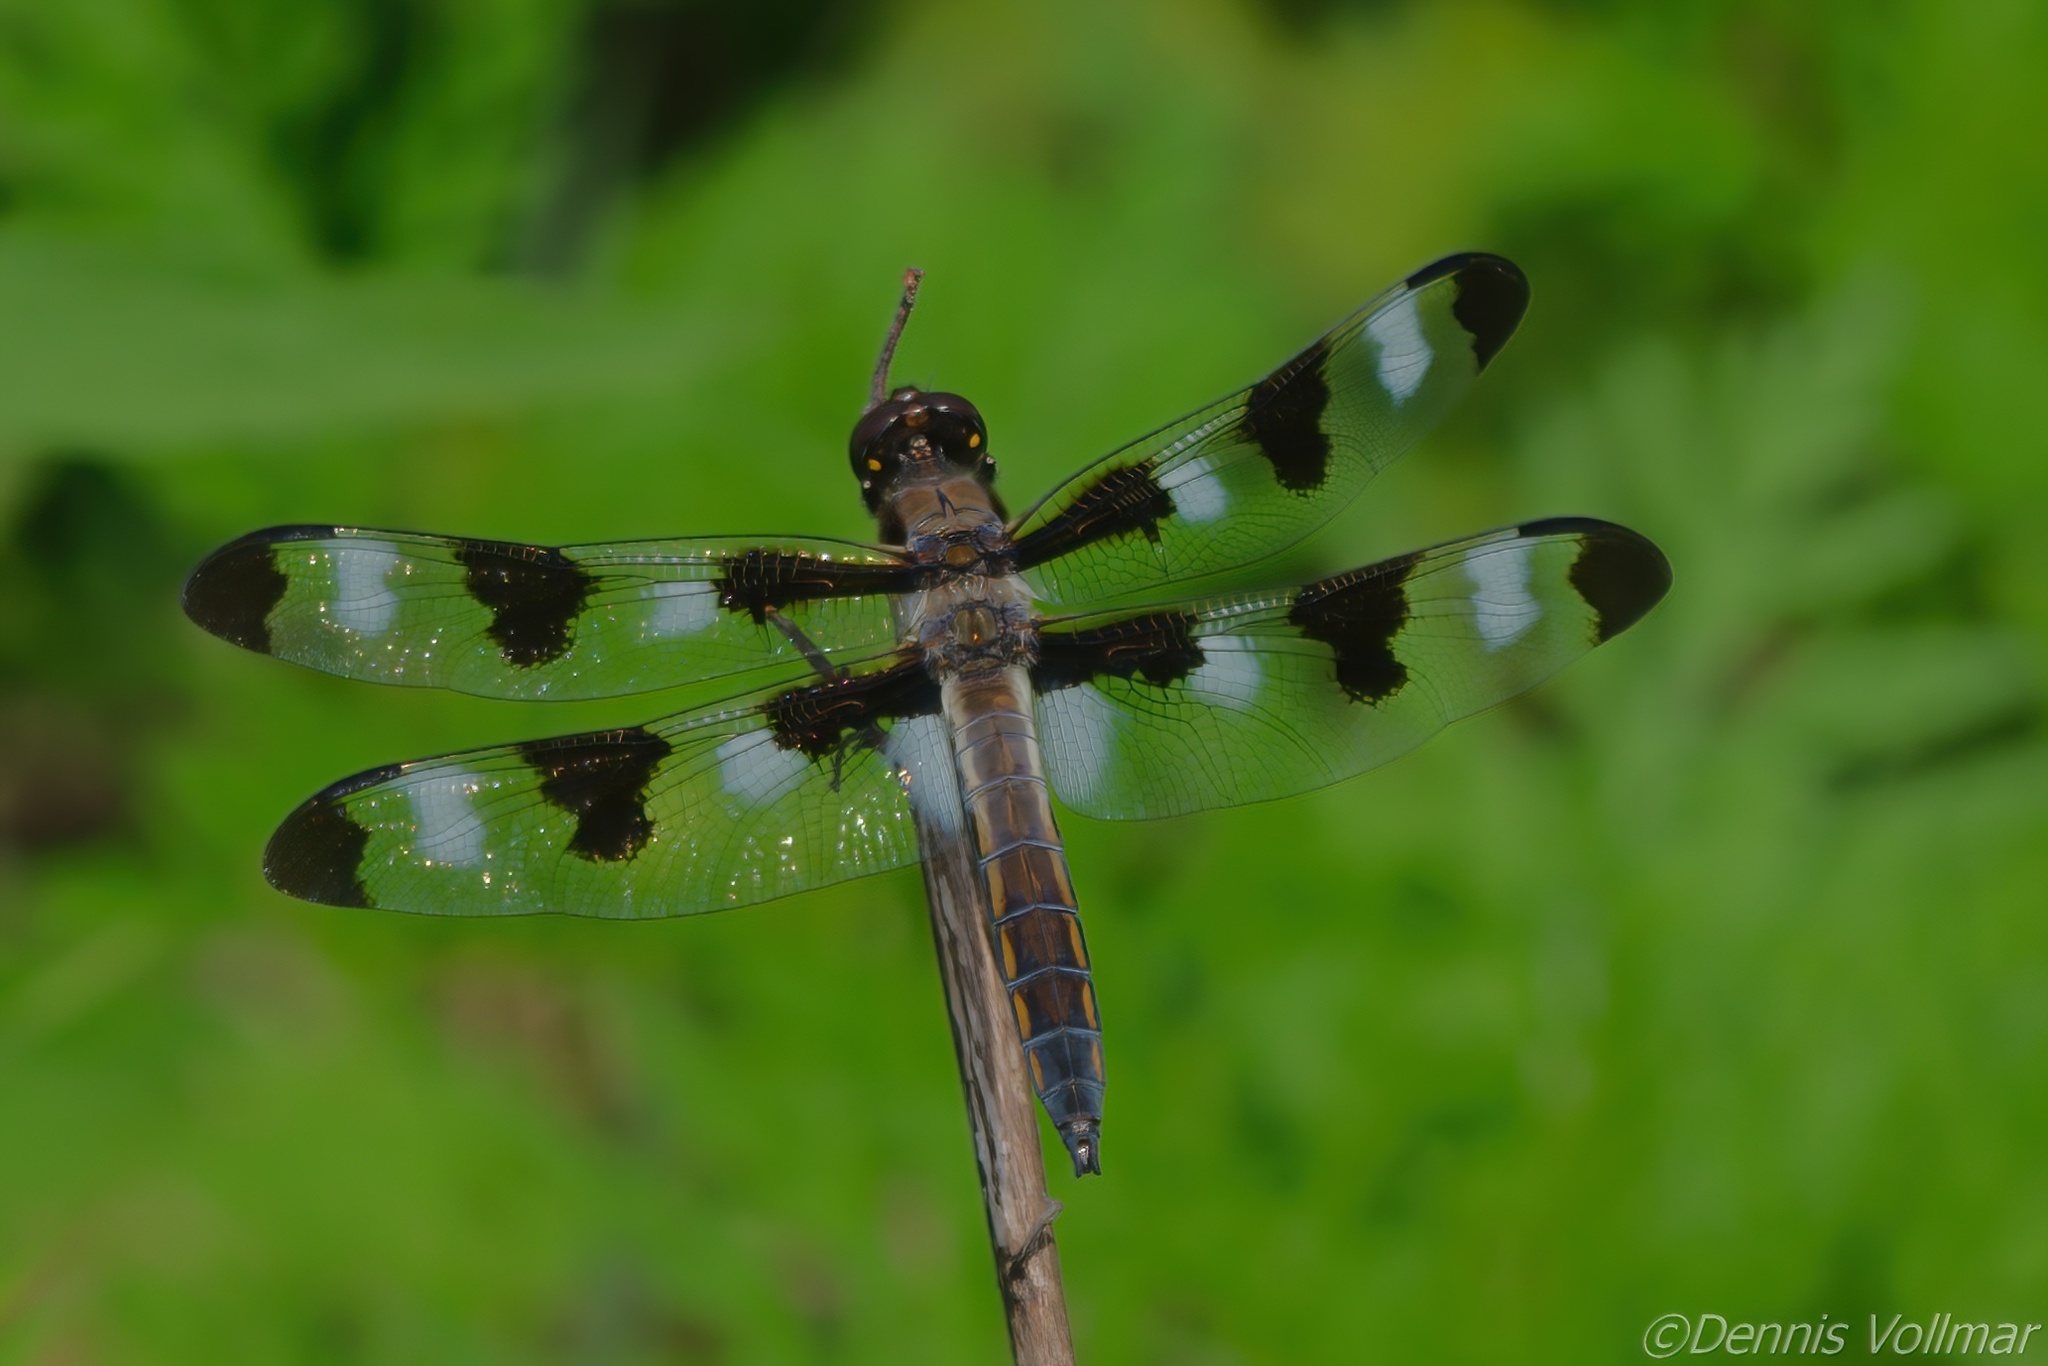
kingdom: Animalia
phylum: Arthropoda
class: Insecta
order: Odonata
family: Libellulidae
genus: Libellula
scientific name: Libellula pulchella
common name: Twelve-spotted skimmer
